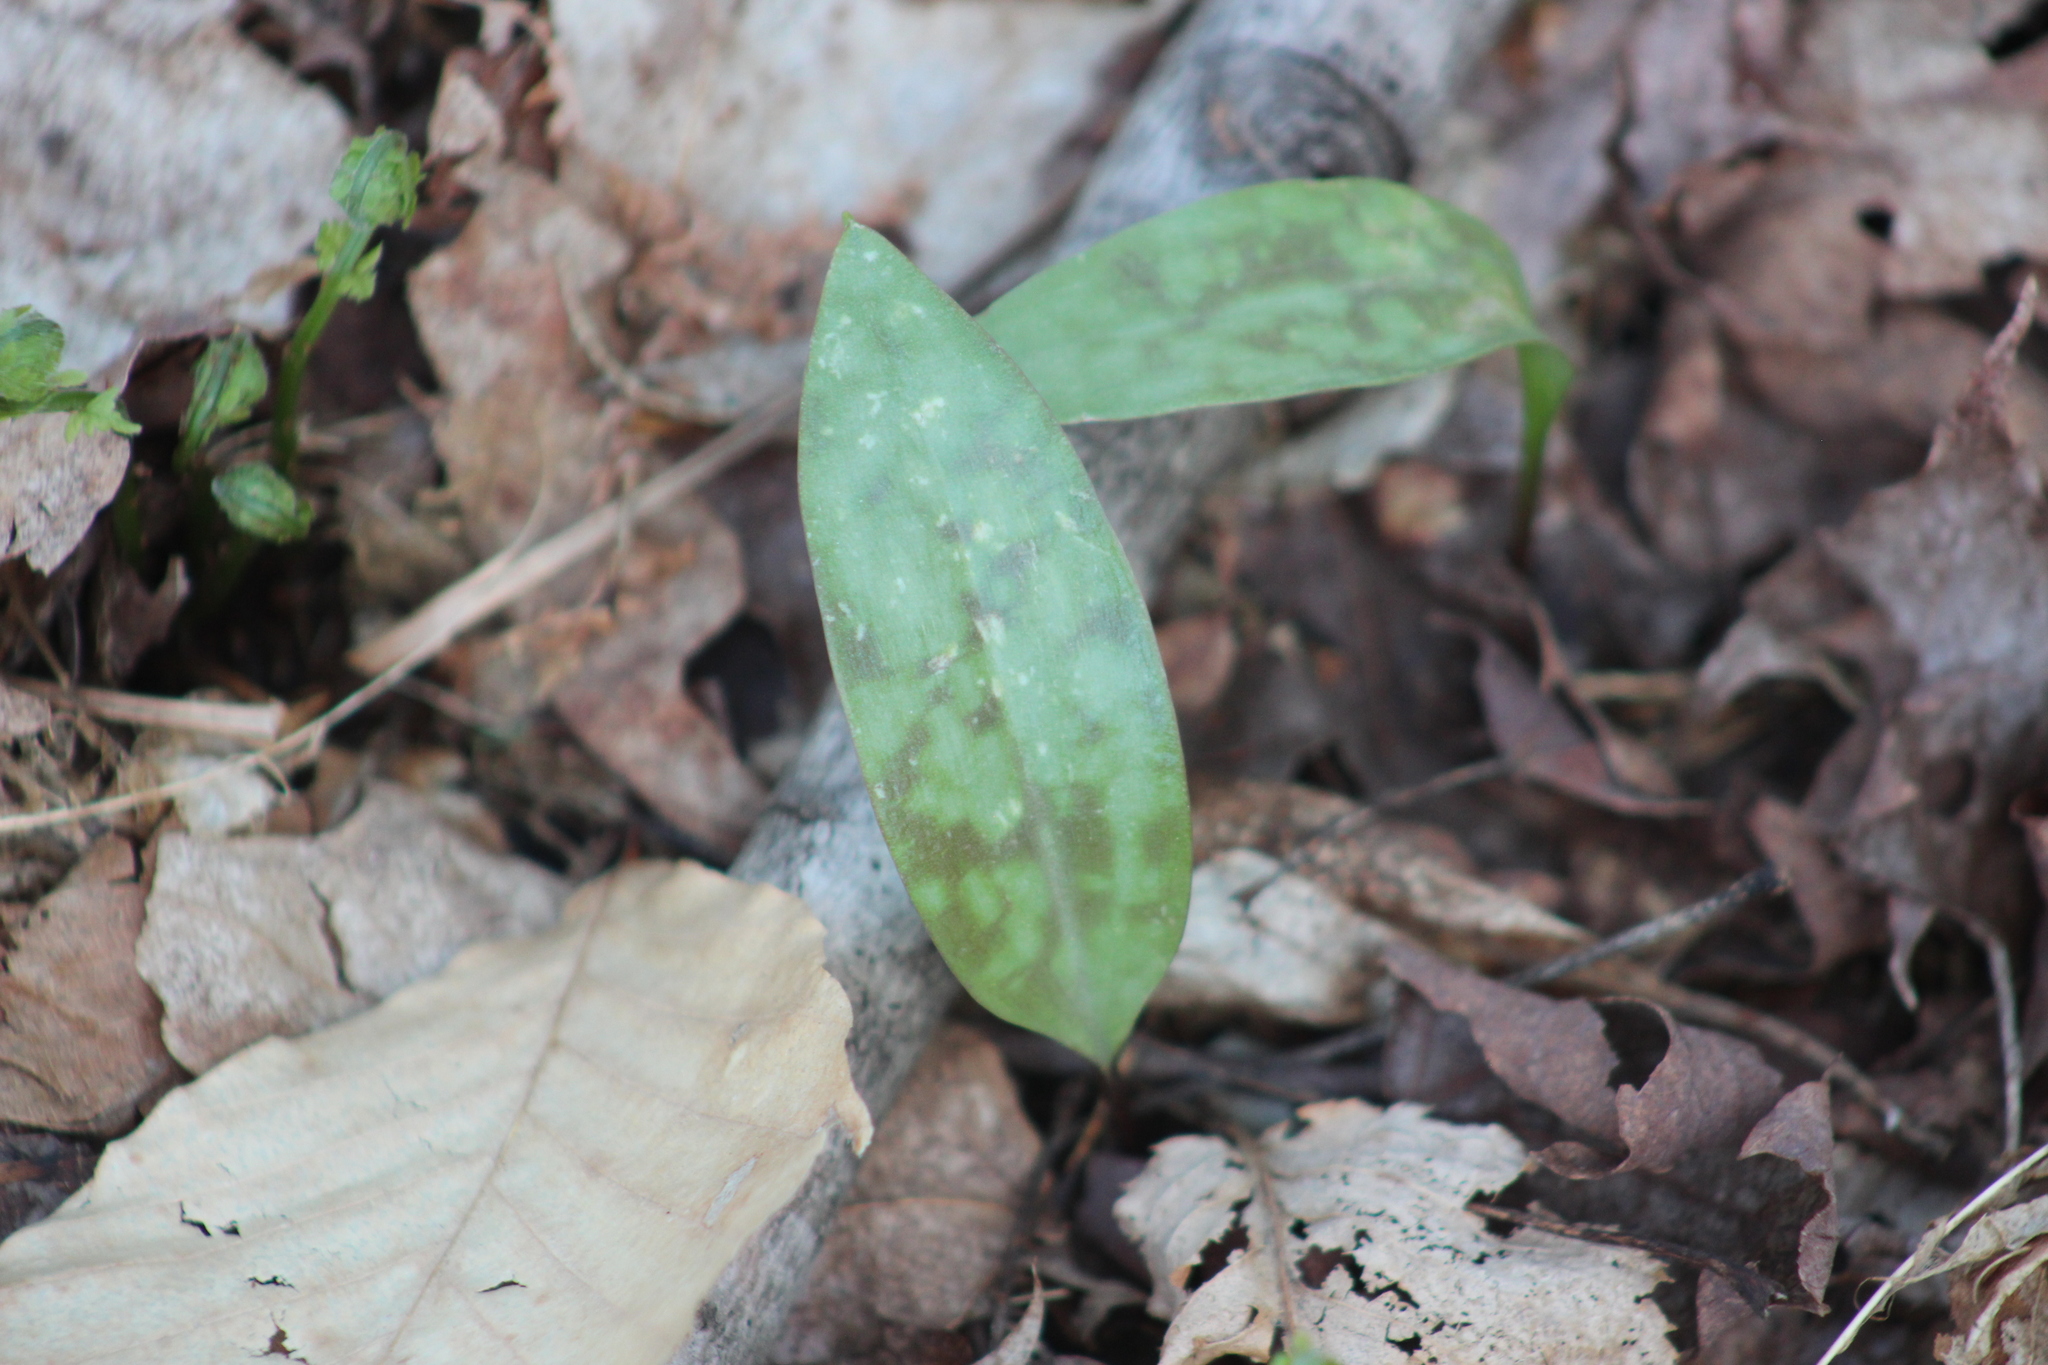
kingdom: Plantae
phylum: Tracheophyta
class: Liliopsida
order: Liliales
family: Liliaceae
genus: Erythronium
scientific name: Erythronium americanum
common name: Yellow adder's-tongue
